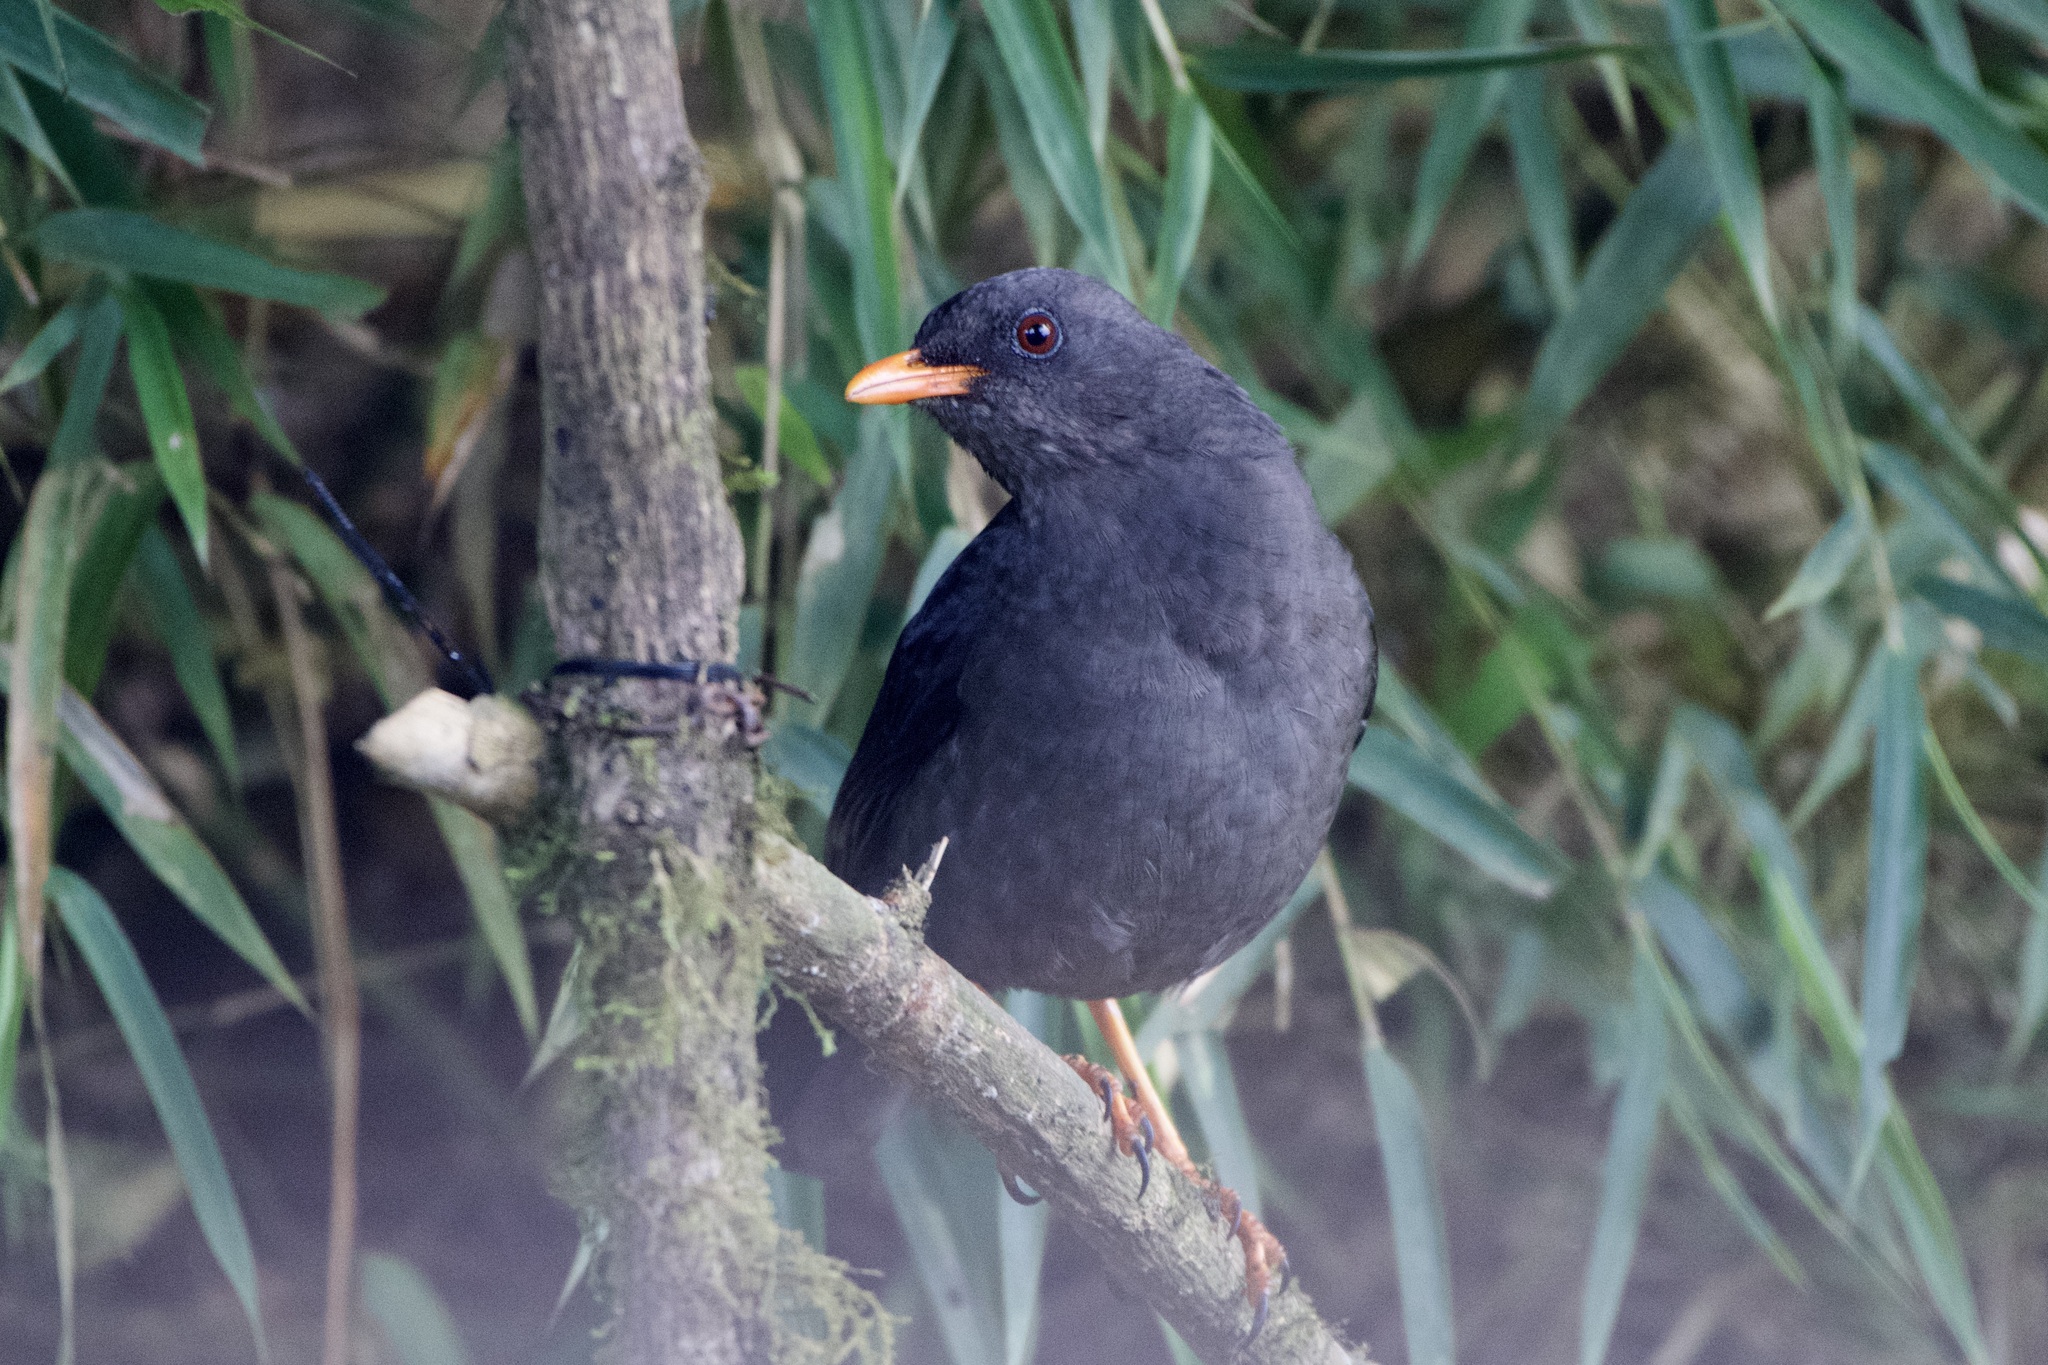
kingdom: Animalia
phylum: Chordata
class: Aves
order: Passeriformes
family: Turdidae
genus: Turdus
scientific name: Turdus fuscater
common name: Great thrush
